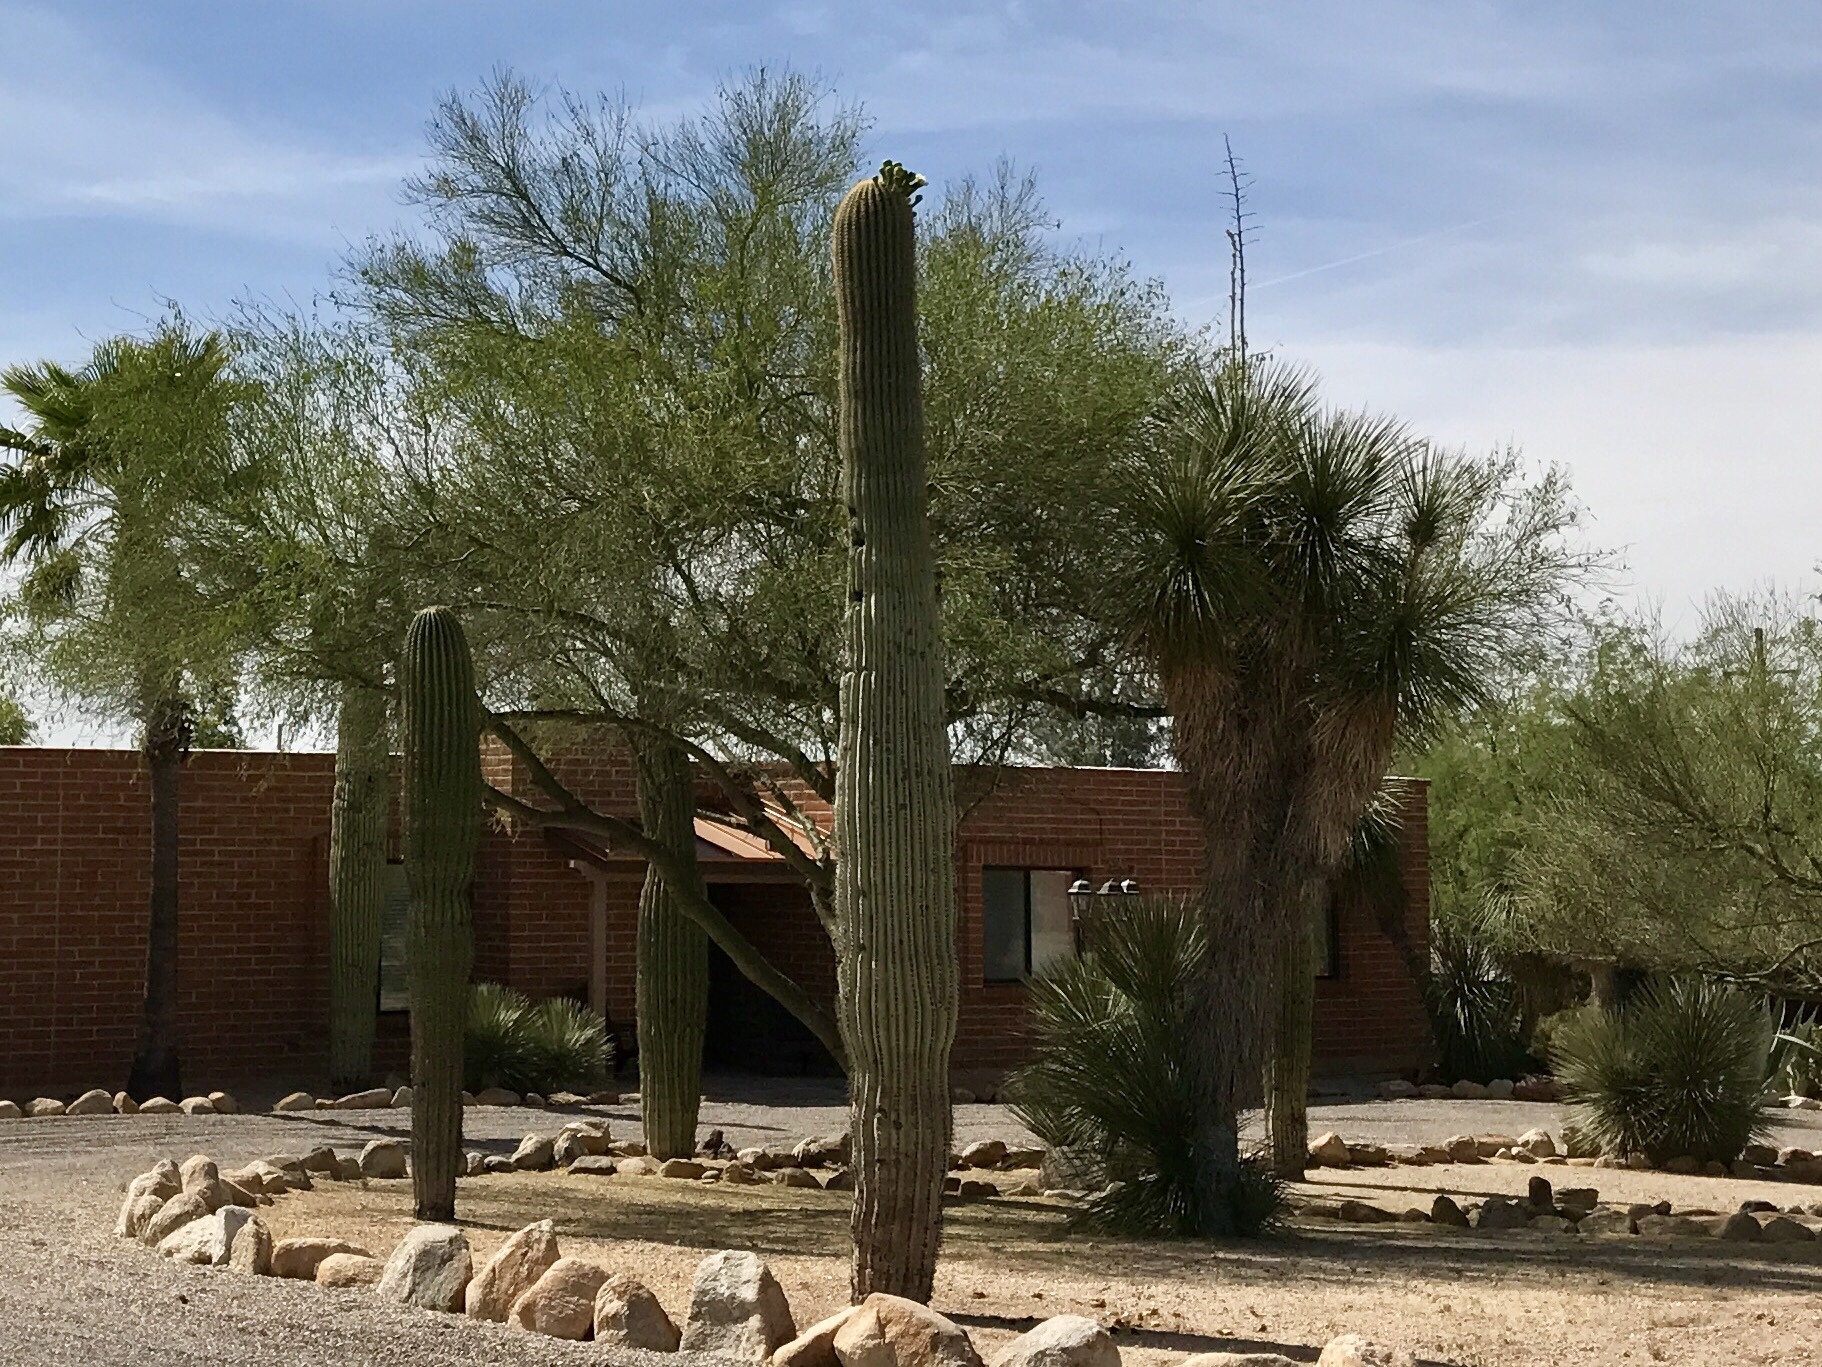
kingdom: Plantae
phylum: Tracheophyta
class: Magnoliopsida
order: Caryophyllales
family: Cactaceae
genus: Carnegiea
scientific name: Carnegiea gigantea
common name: Saguaro
